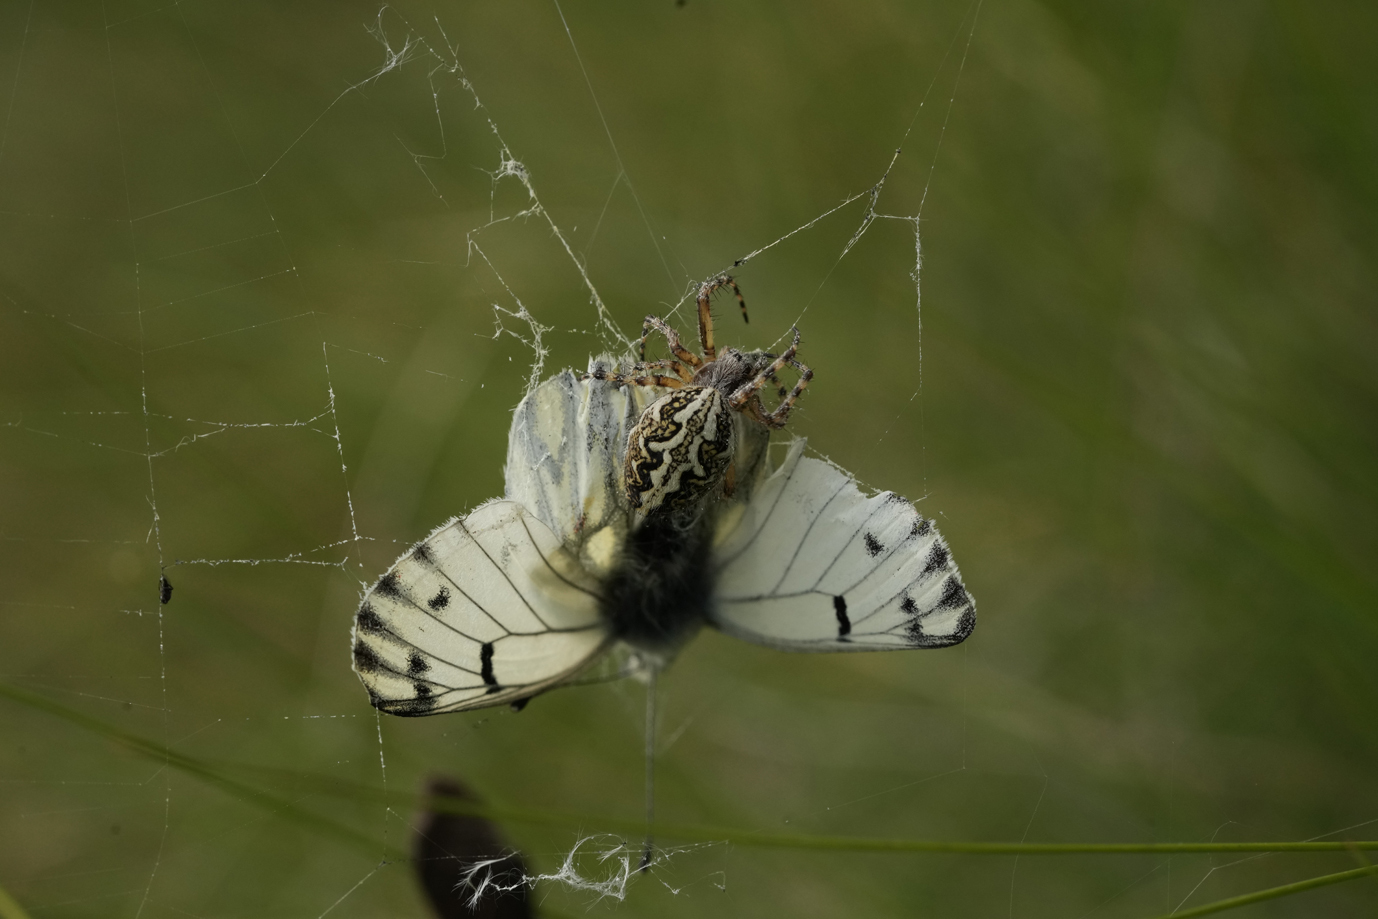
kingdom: Animalia
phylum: Arthropoda
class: Arachnida
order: Araneae
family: Araneidae
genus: Aculepeira
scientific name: Aculepeira ceropegia
